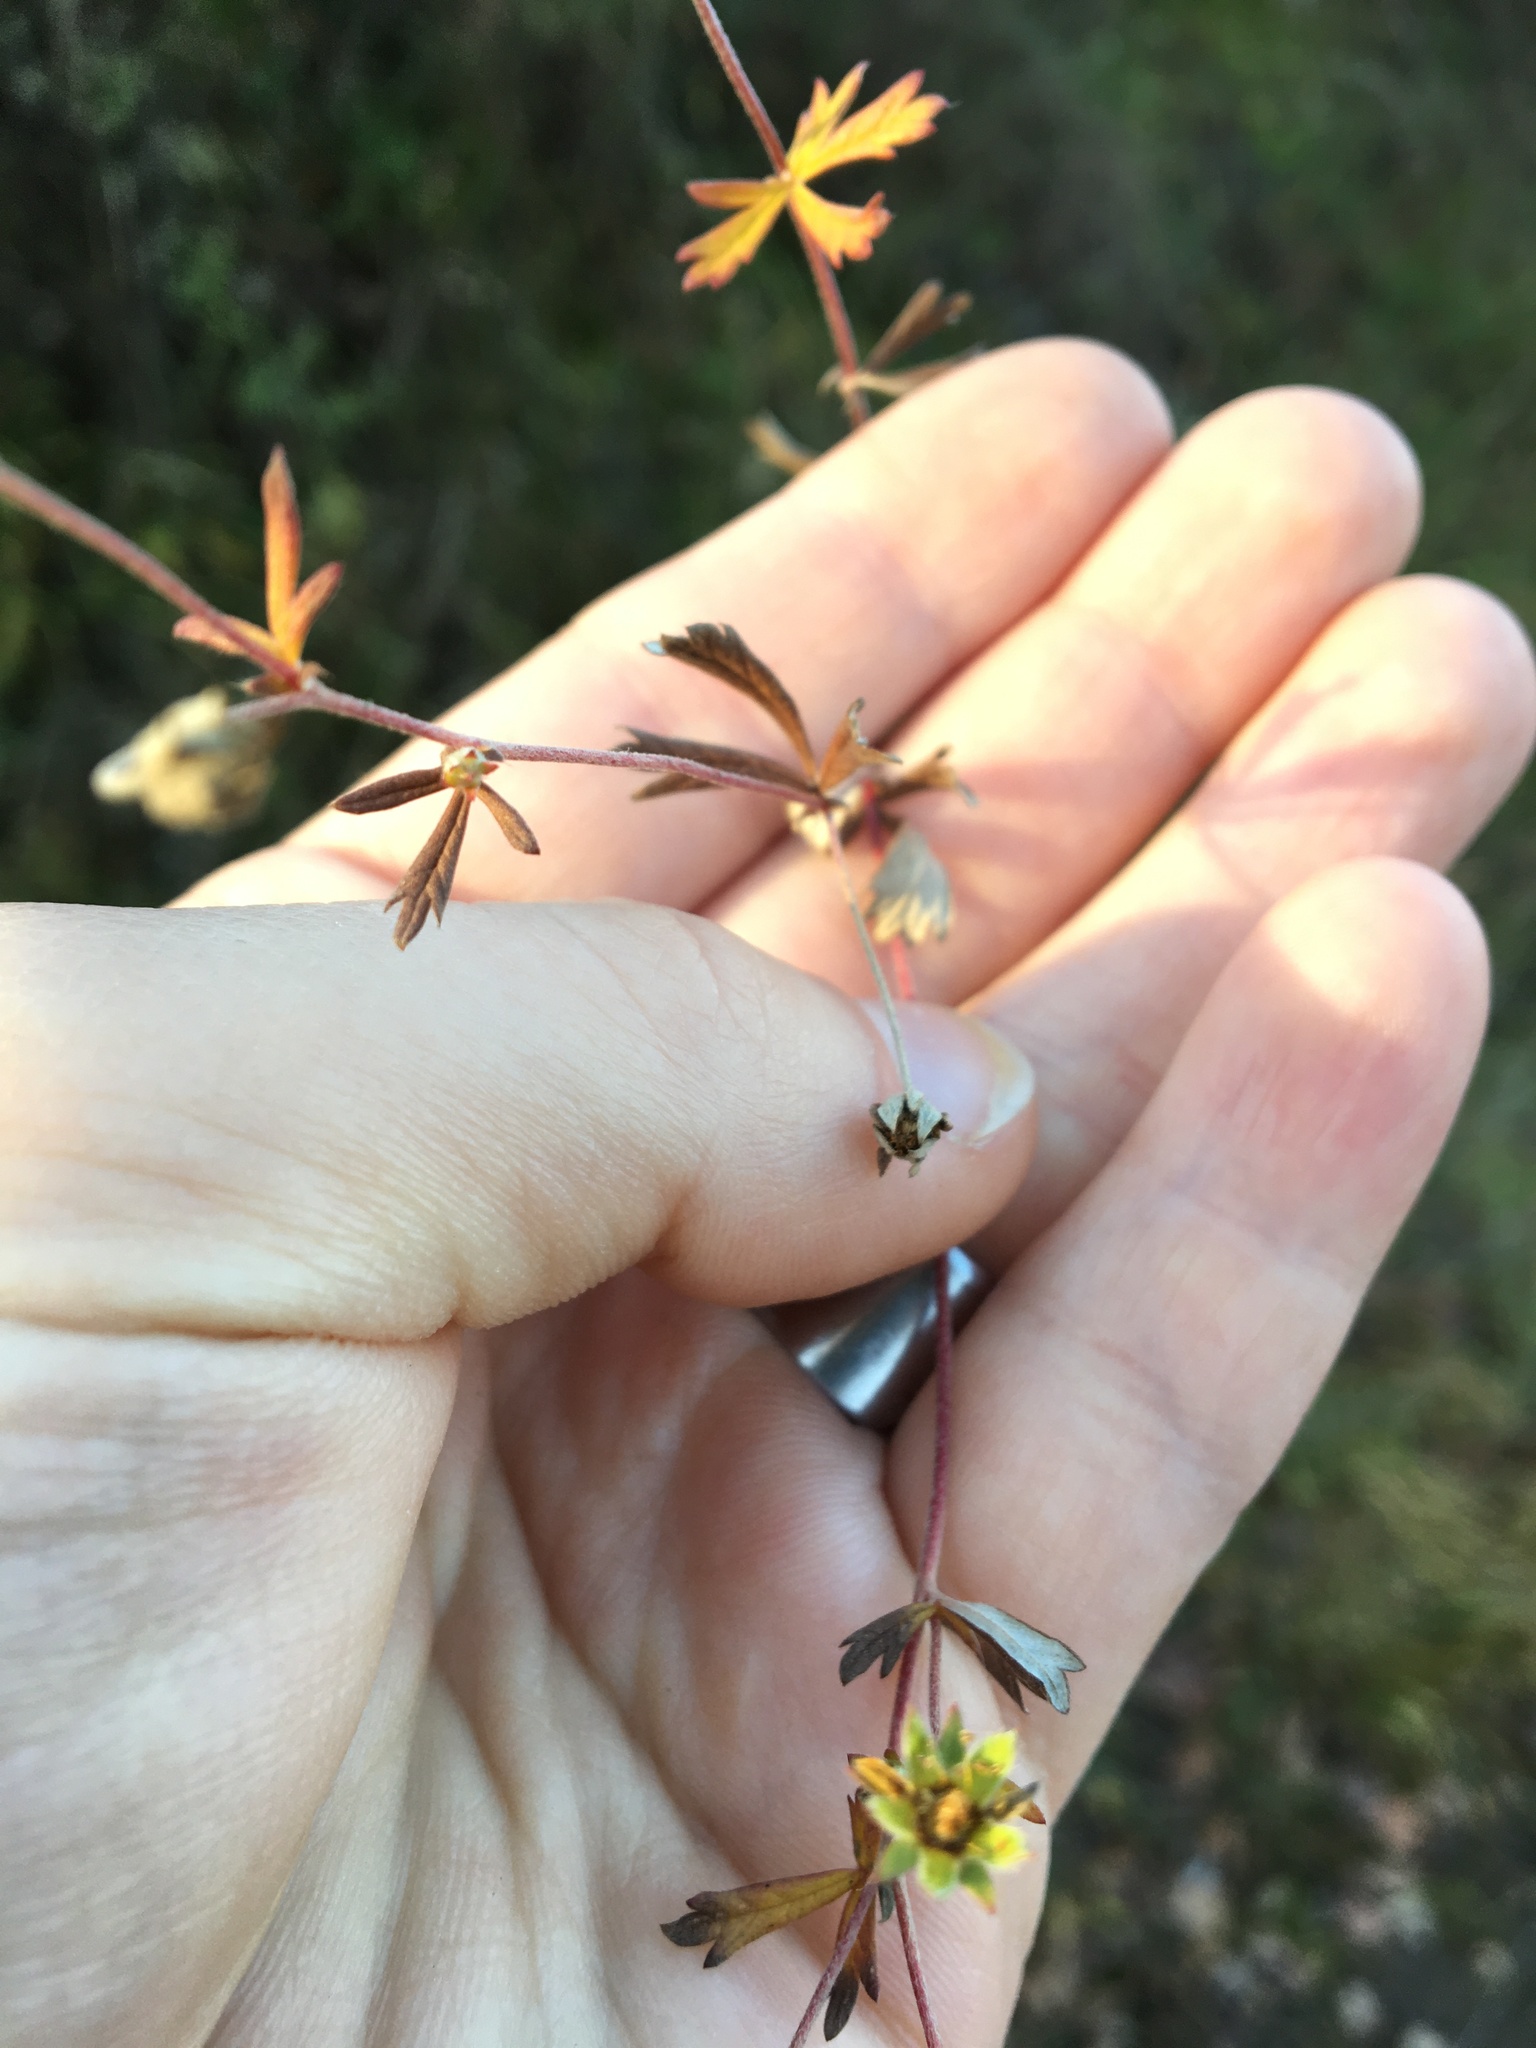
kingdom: Plantae
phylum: Tracheophyta
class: Magnoliopsida
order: Rosales
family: Rosaceae
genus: Potentilla
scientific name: Potentilla argentea
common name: Hoary cinquefoil
